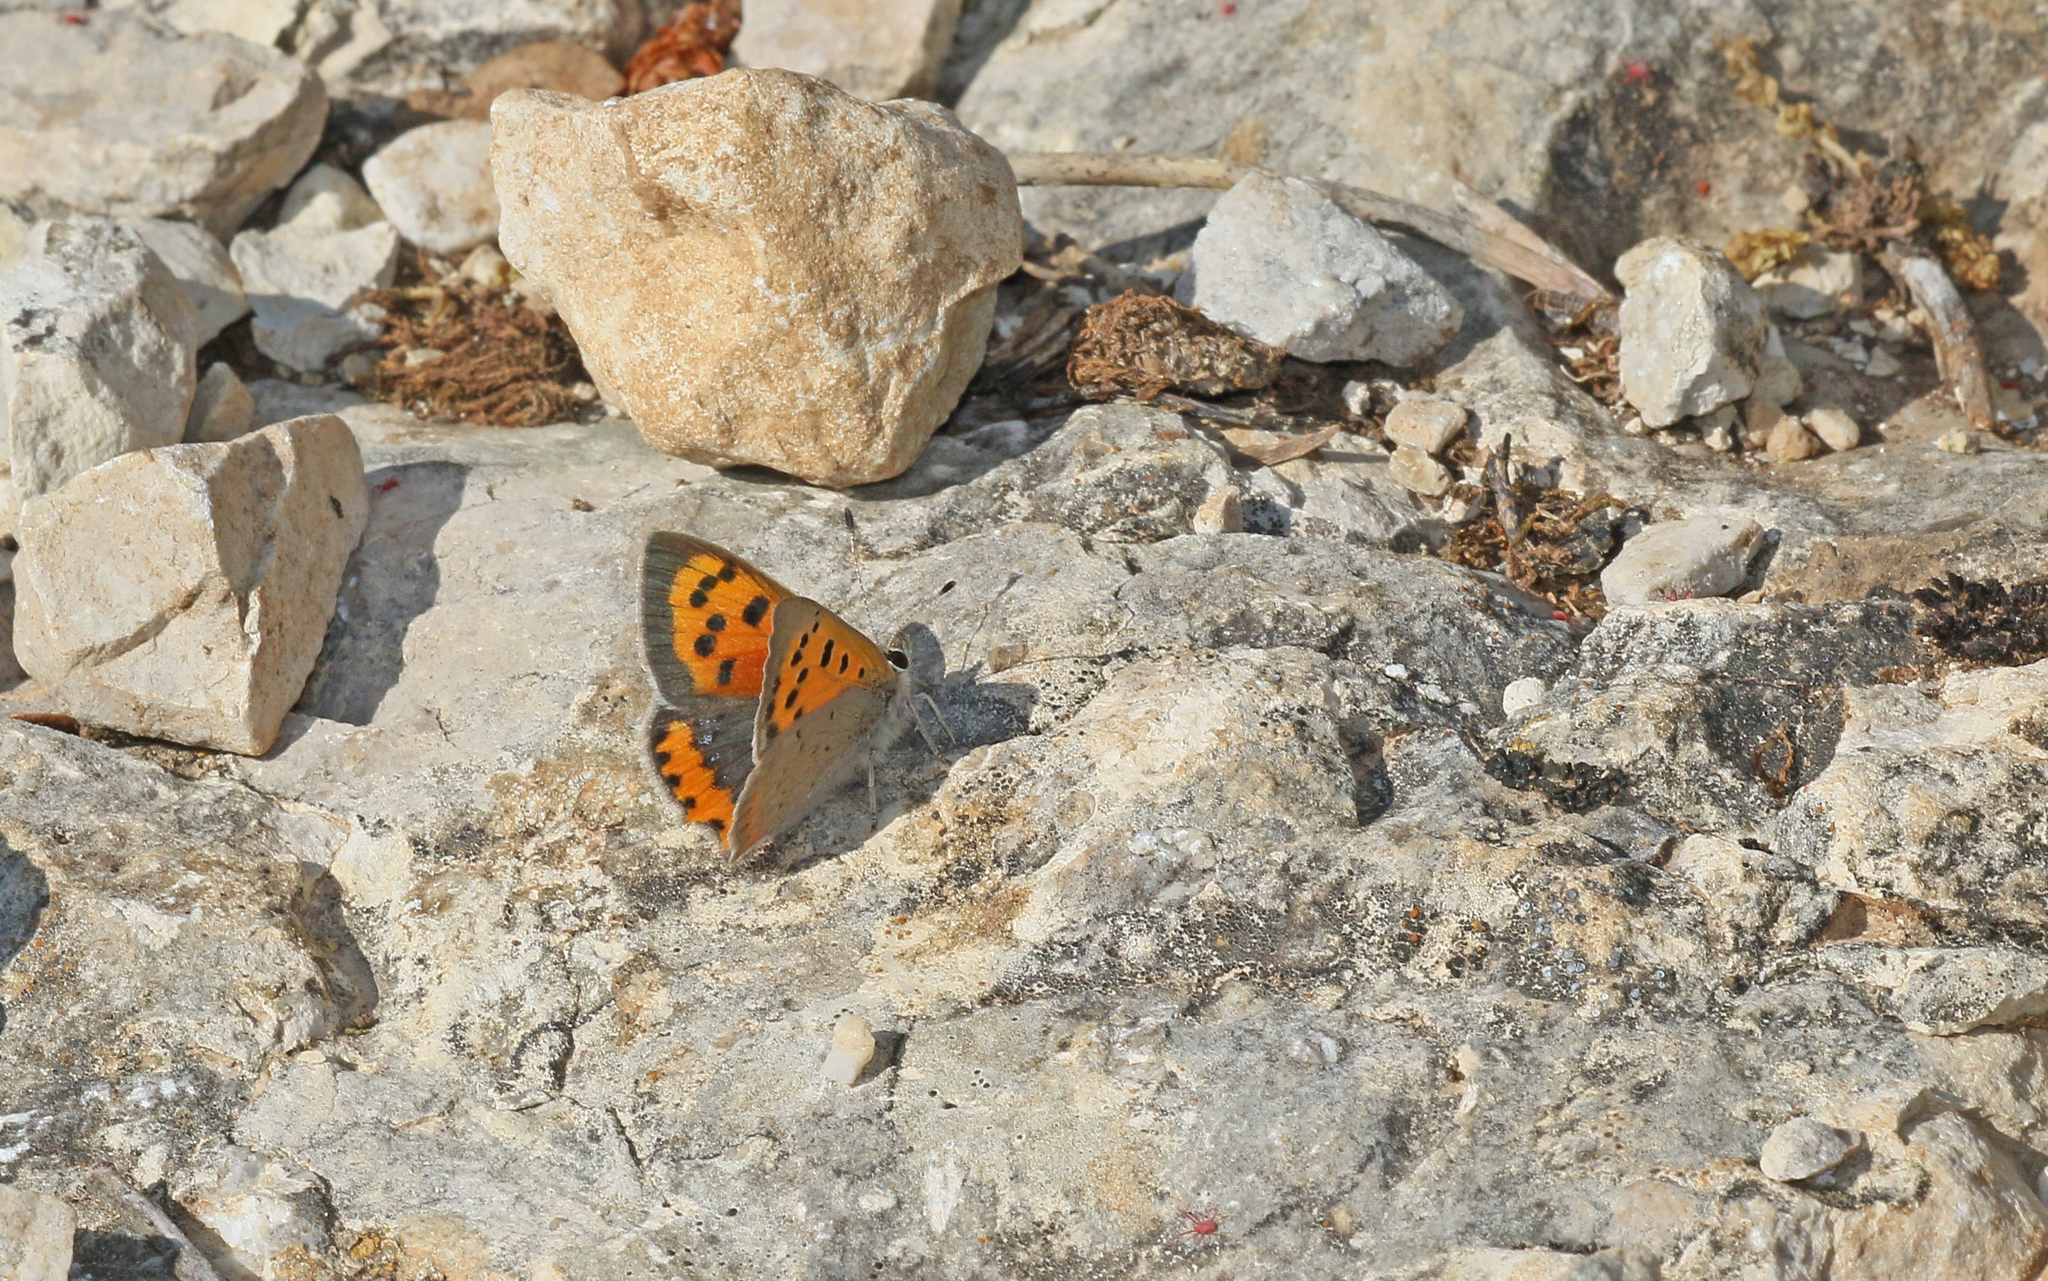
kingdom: Animalia
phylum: Arthropoda
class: Insecta
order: Lepidoptera
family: Lycaenidae
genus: Lycaena
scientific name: Lycaena phlaeas
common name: Small copper
